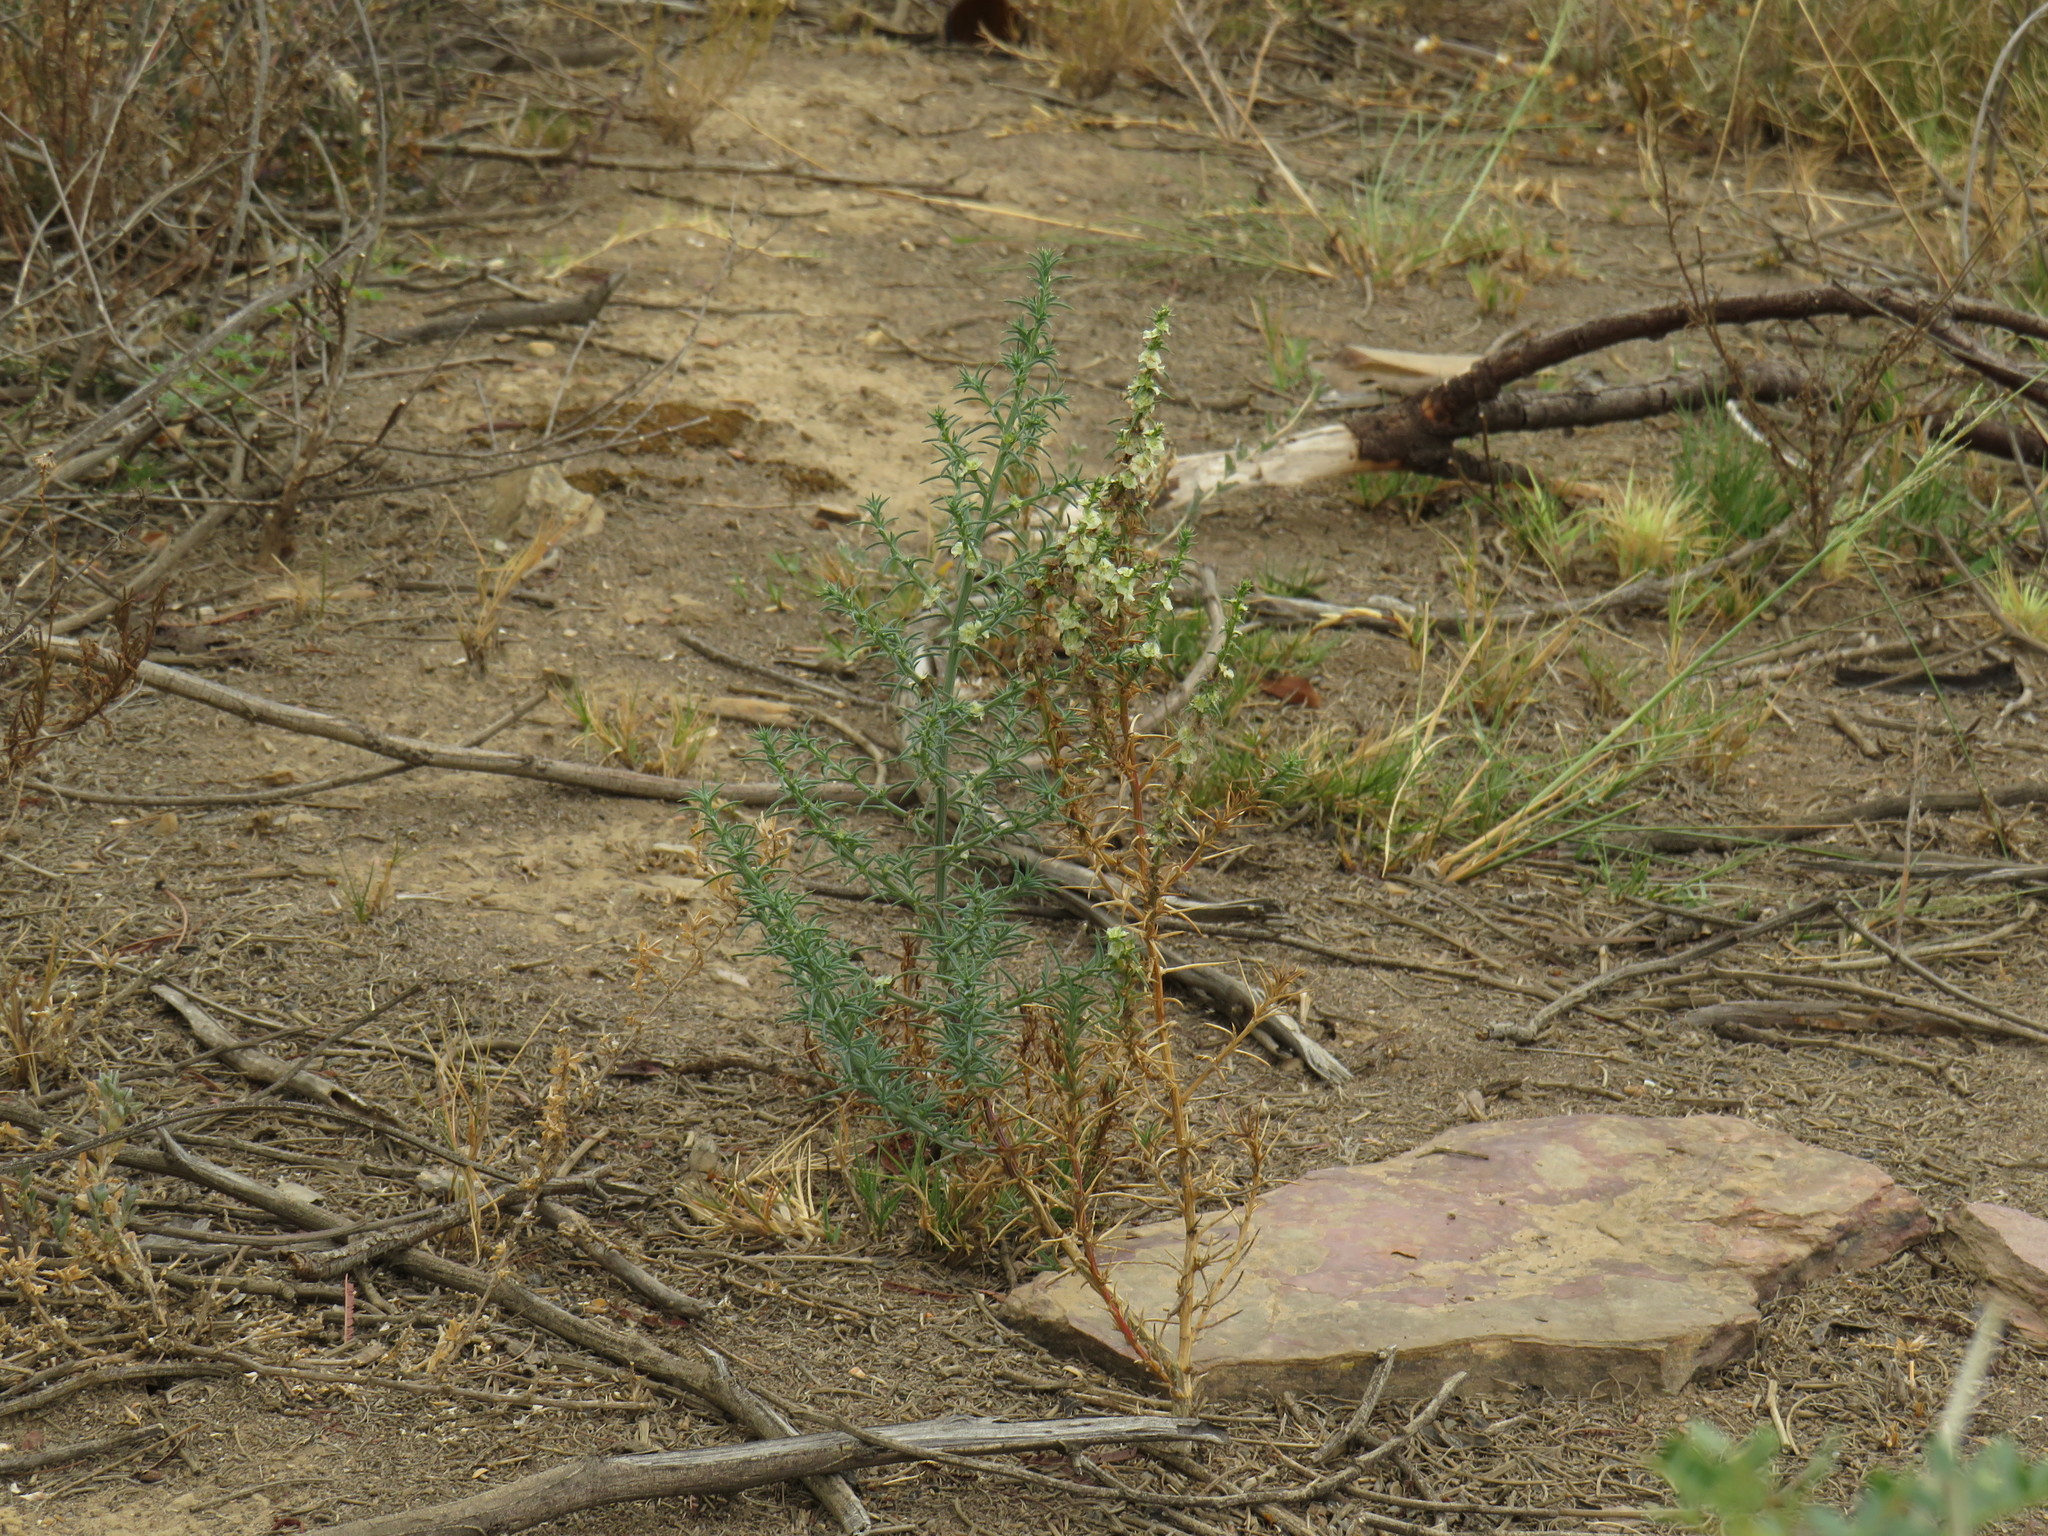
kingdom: Plantae
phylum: Tracheophyta
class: Magnoliopsida
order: Caryophyllales
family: Amaranthaceae
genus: Salsola
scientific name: Salsola kali
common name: Saltwort
